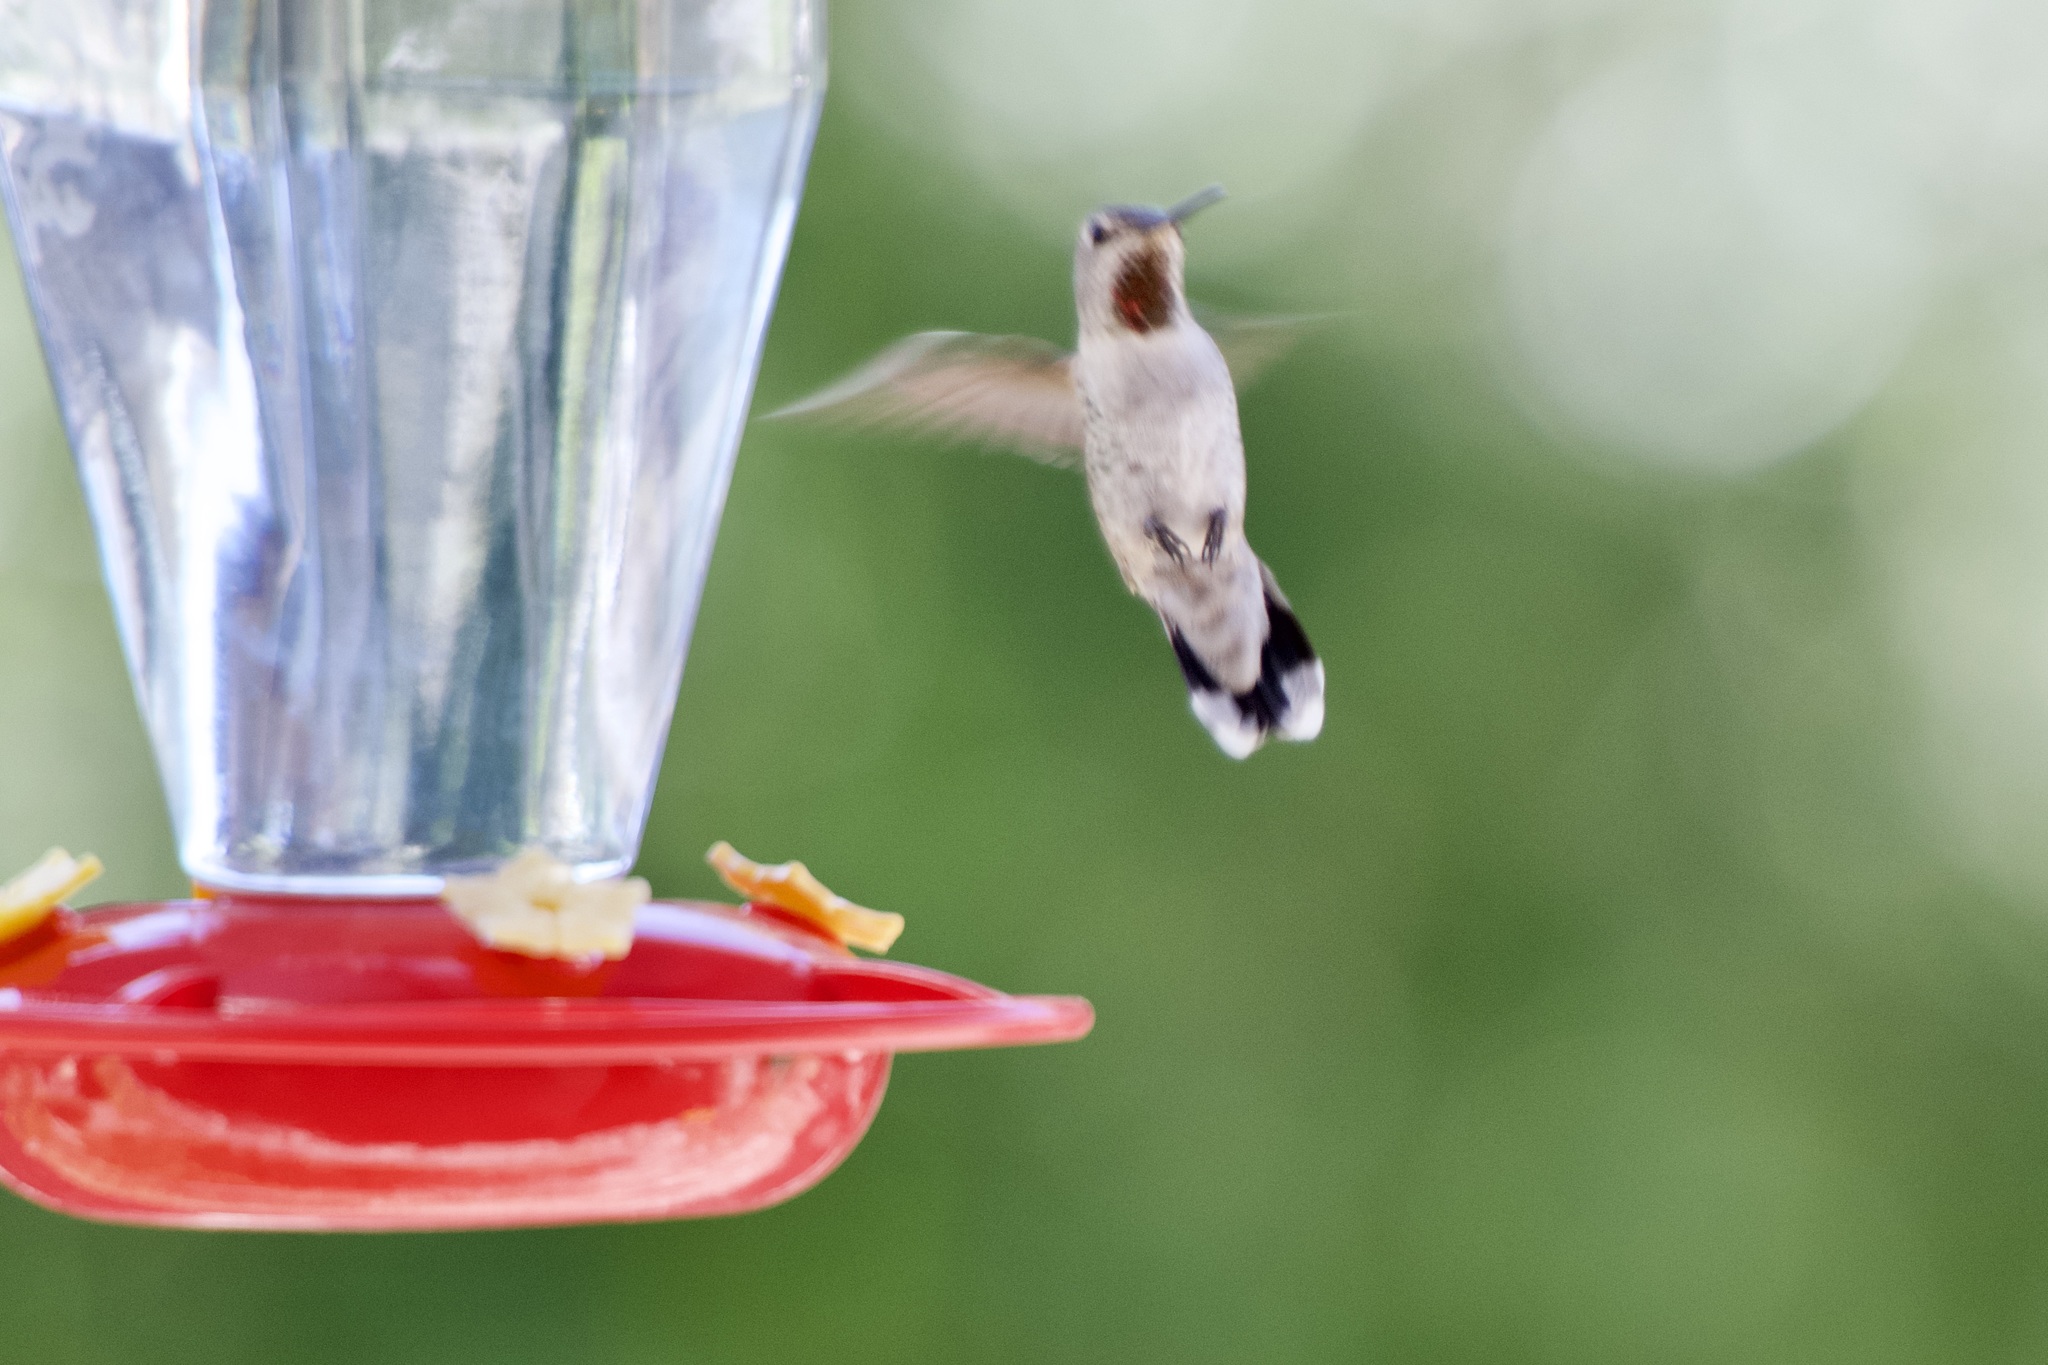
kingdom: Animalia
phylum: Chordata
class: Aves
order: Apodiformes
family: Trochilidae
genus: Calypte
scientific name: Calypte anna
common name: Anna's hummingbird
